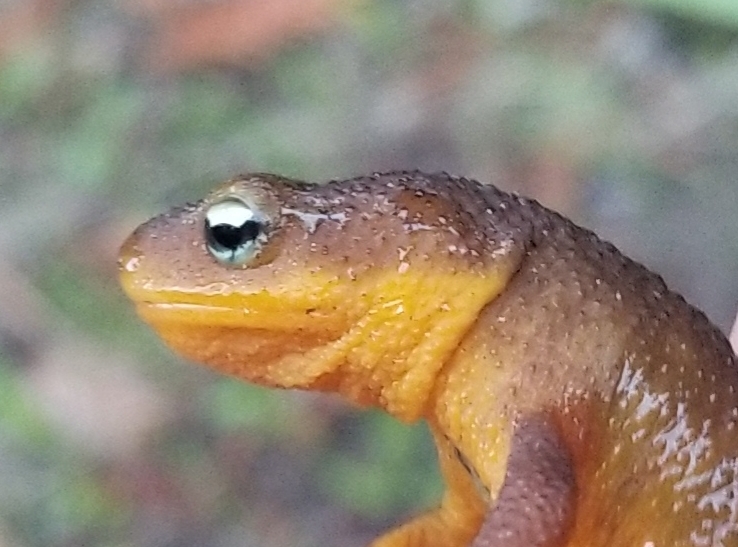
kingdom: Animalia
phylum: Chordata
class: Amphibia
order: Caudata
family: Salamandridae
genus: Taricha
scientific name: Taricha torosa
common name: California newt
